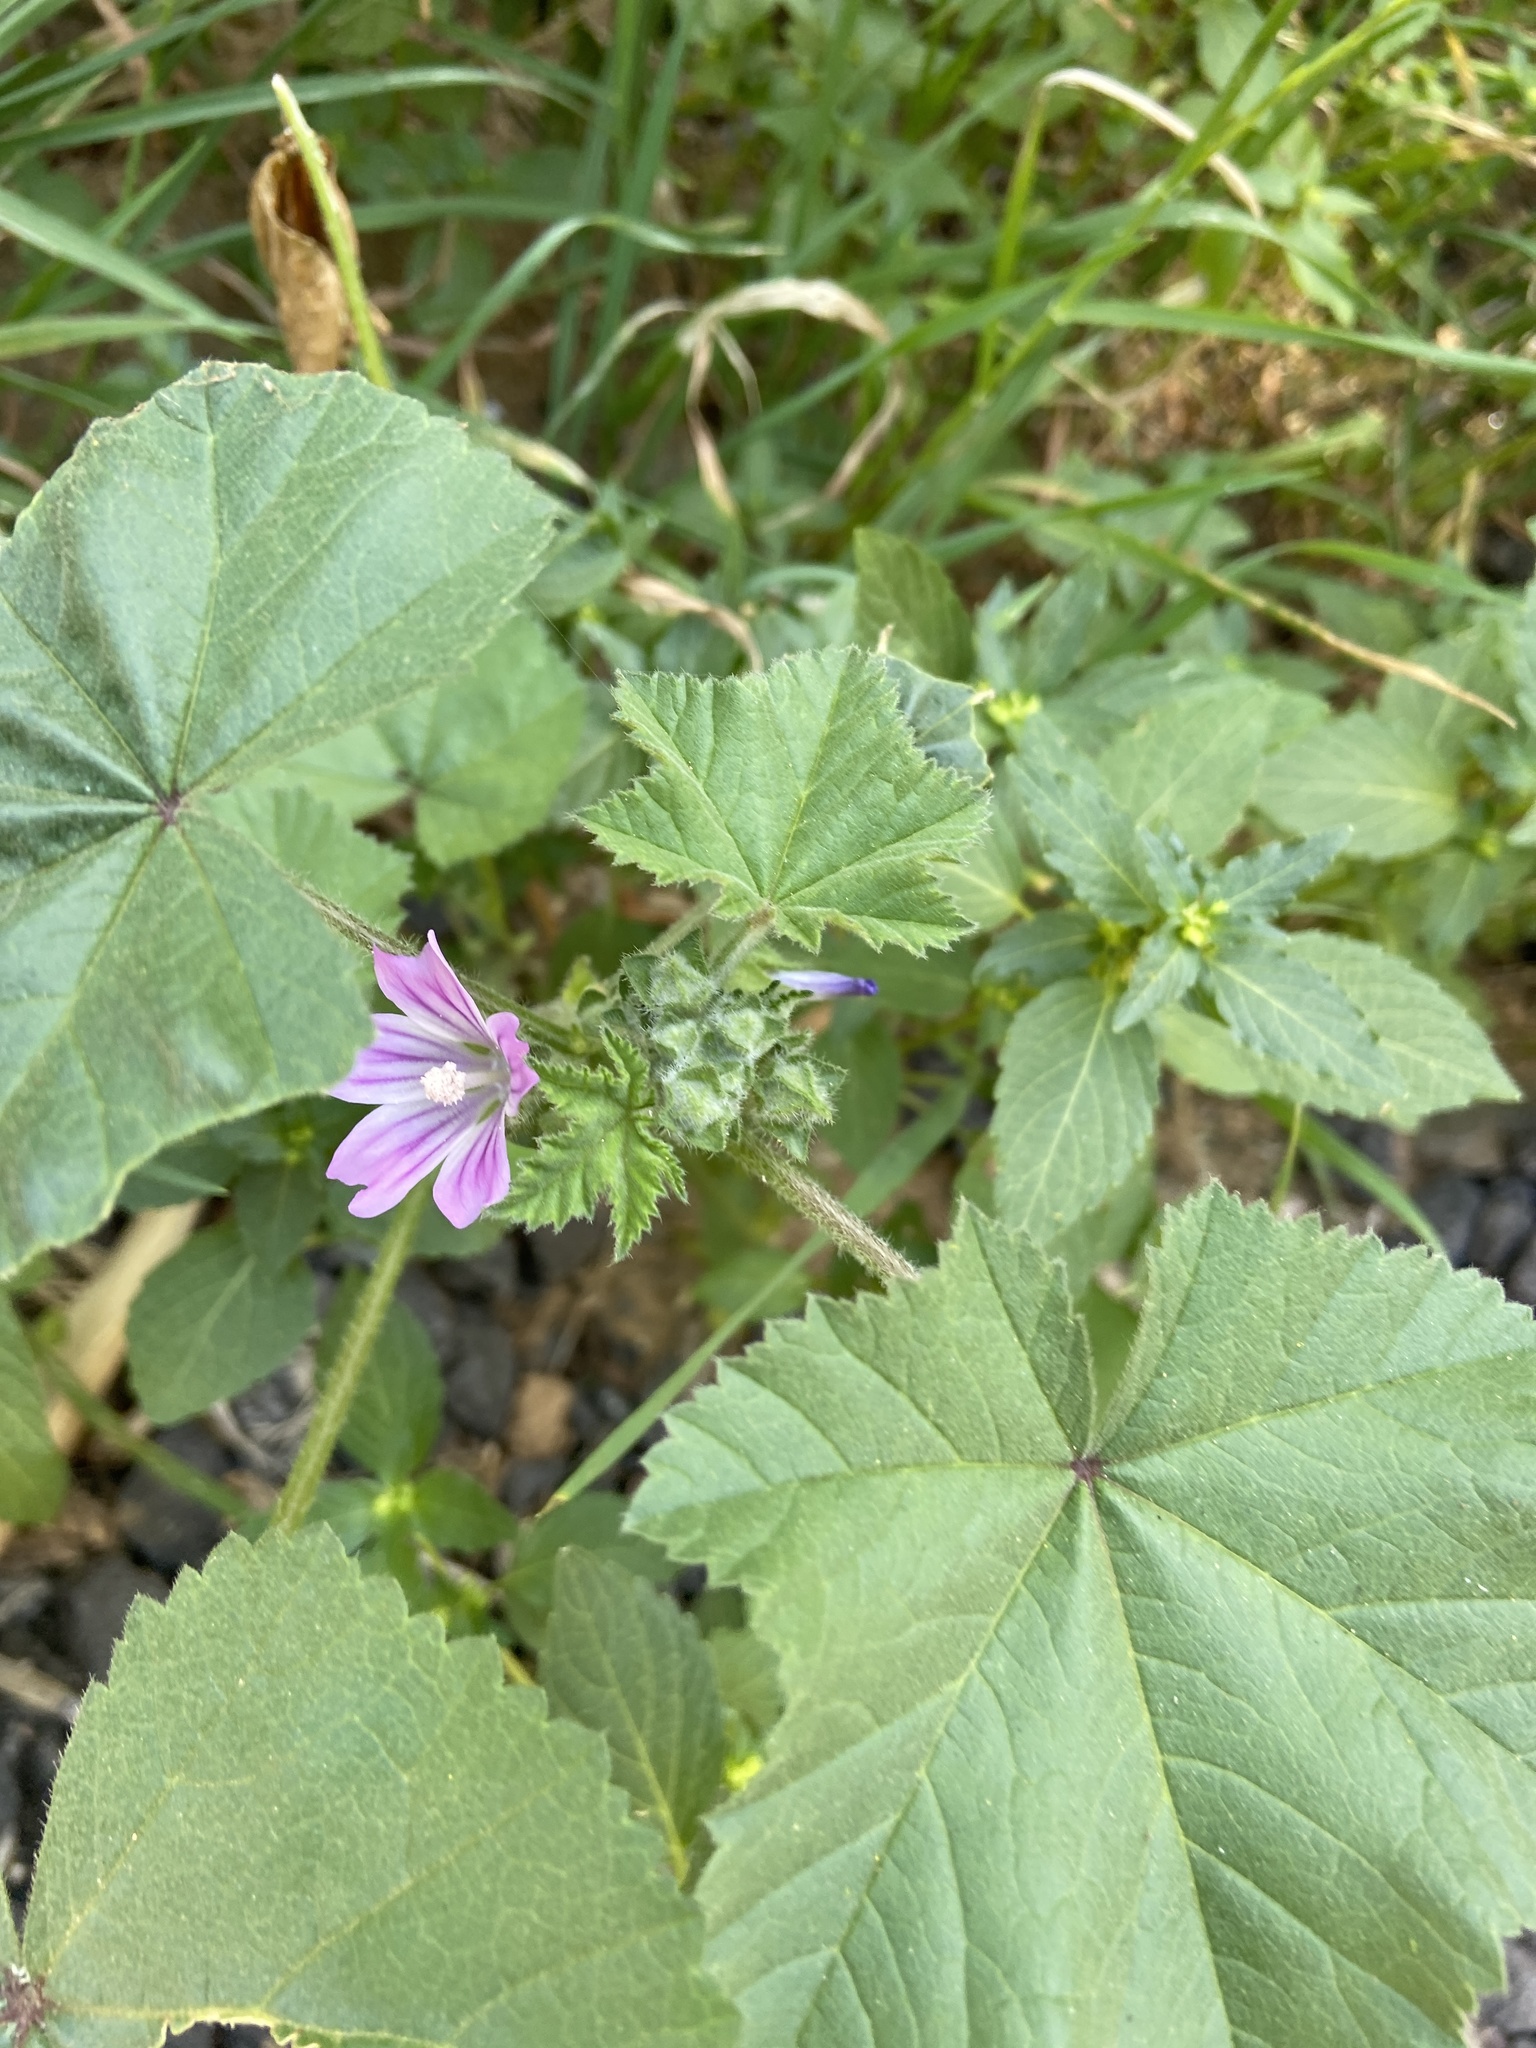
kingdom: Plantae
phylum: Tracheophyta
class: Magnoliopsida
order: Malvales
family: Malvaceae
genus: Malva
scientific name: Malva neglecta
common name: Common mallow
